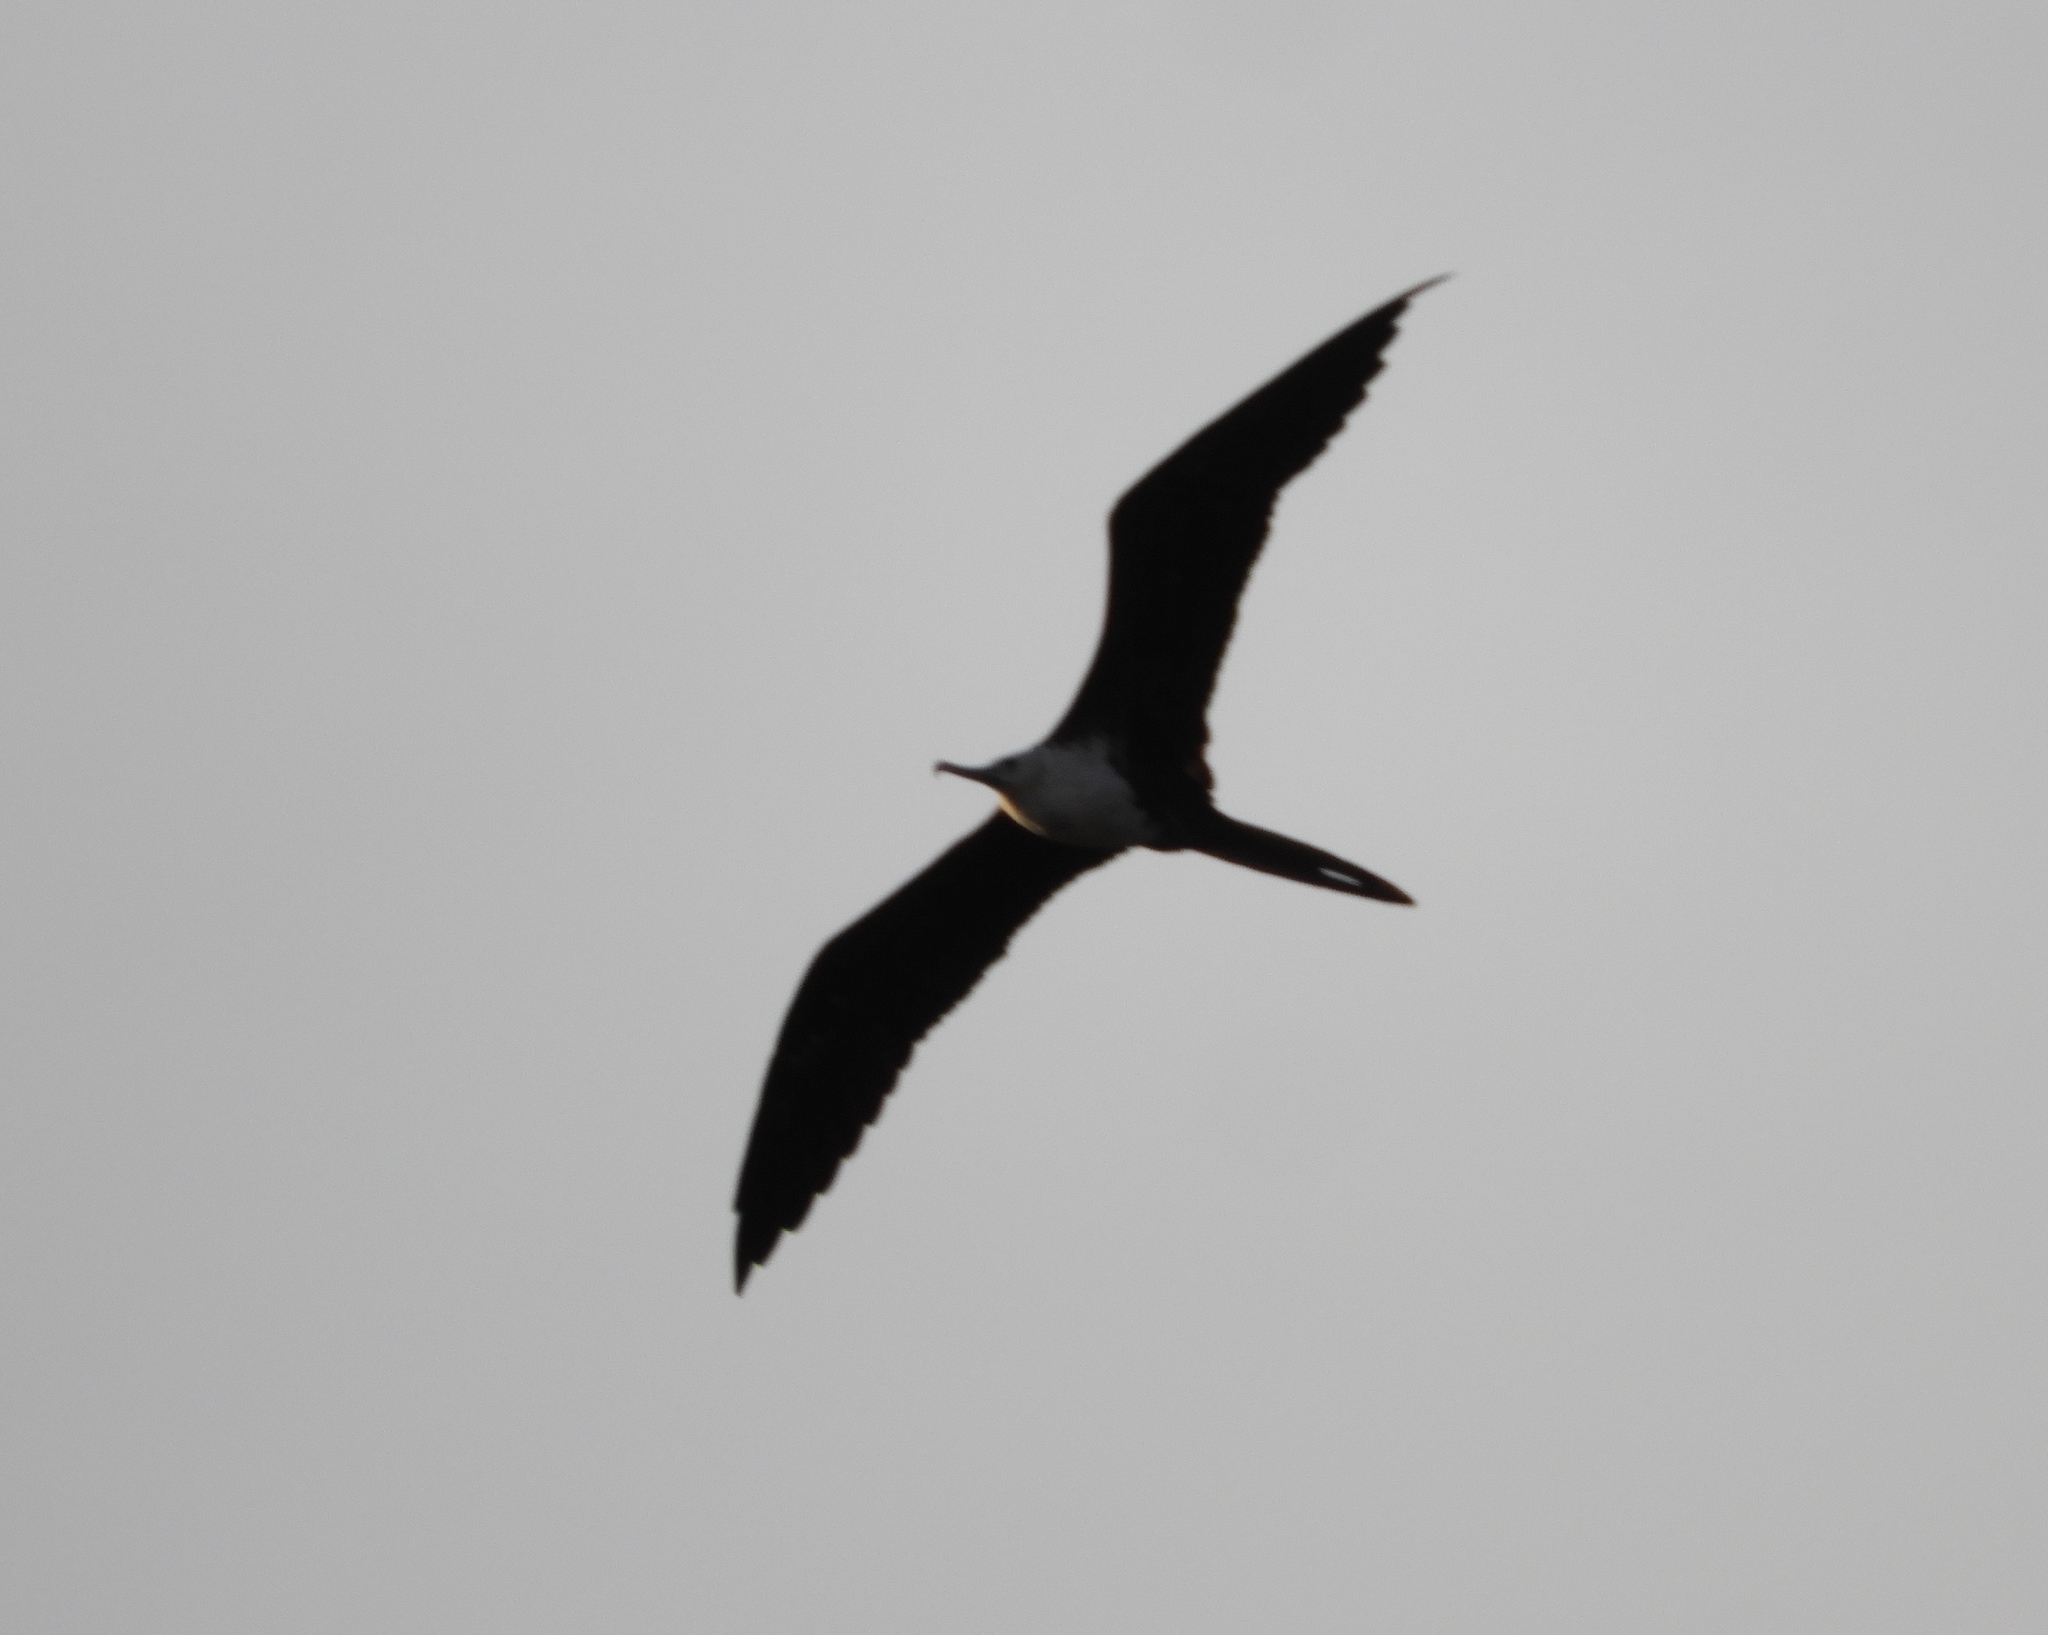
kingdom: Animalia
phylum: Chordata
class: Aves
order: Suliformes
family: Fregatidae
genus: Fregata
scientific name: Fregata magnificens
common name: Magnificent frigatebird
